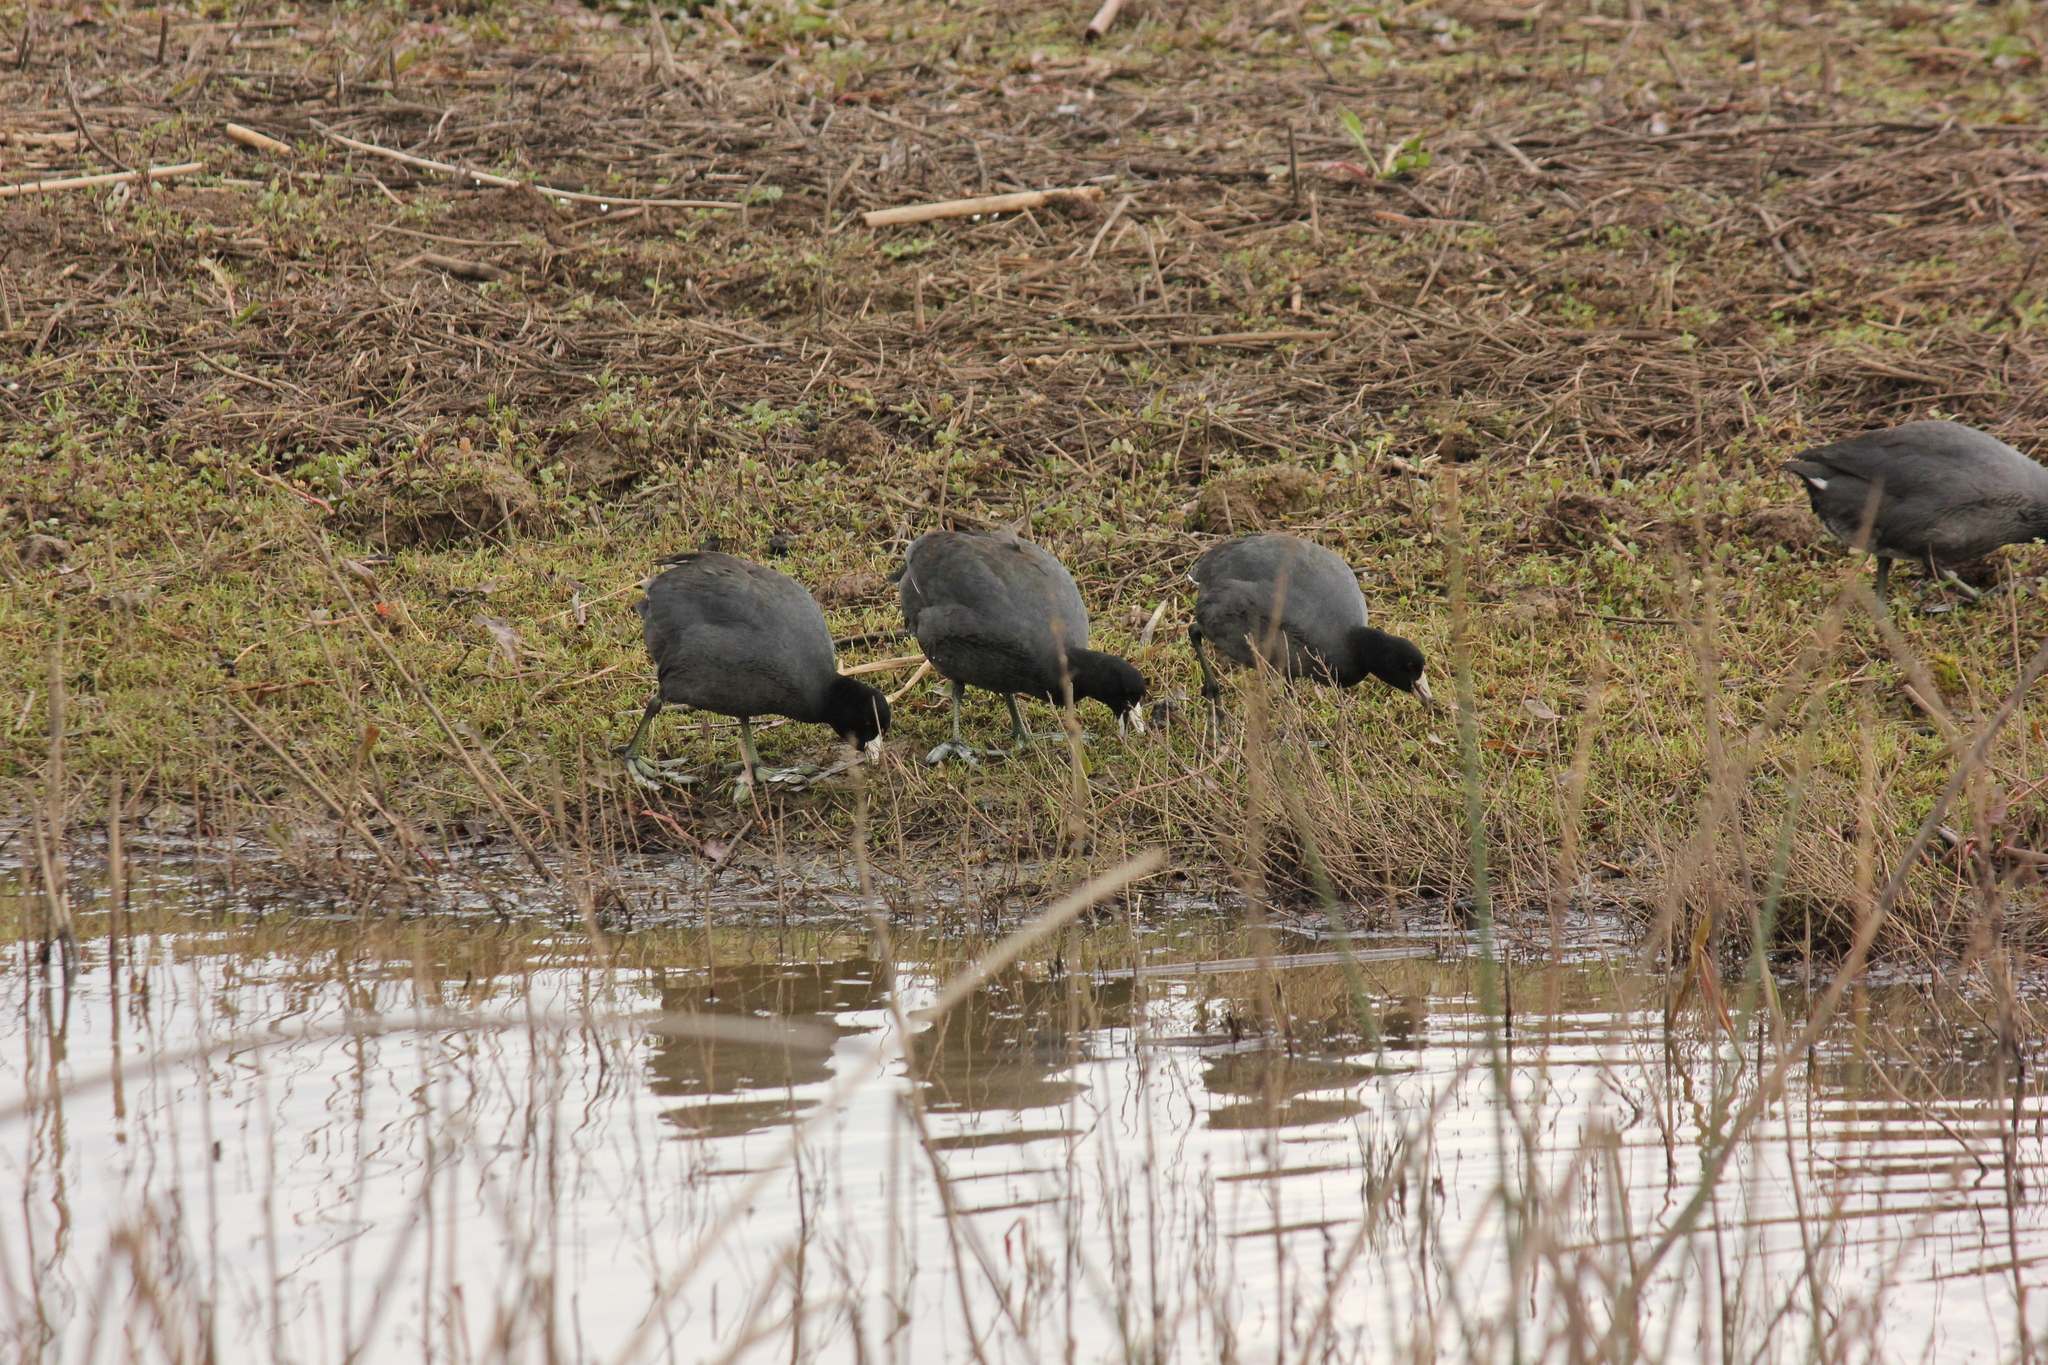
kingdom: Animalia
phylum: Chordata
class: Aves
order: Gruiformes
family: Rallidae
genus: Fulica
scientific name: Fulica americana
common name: American coot
